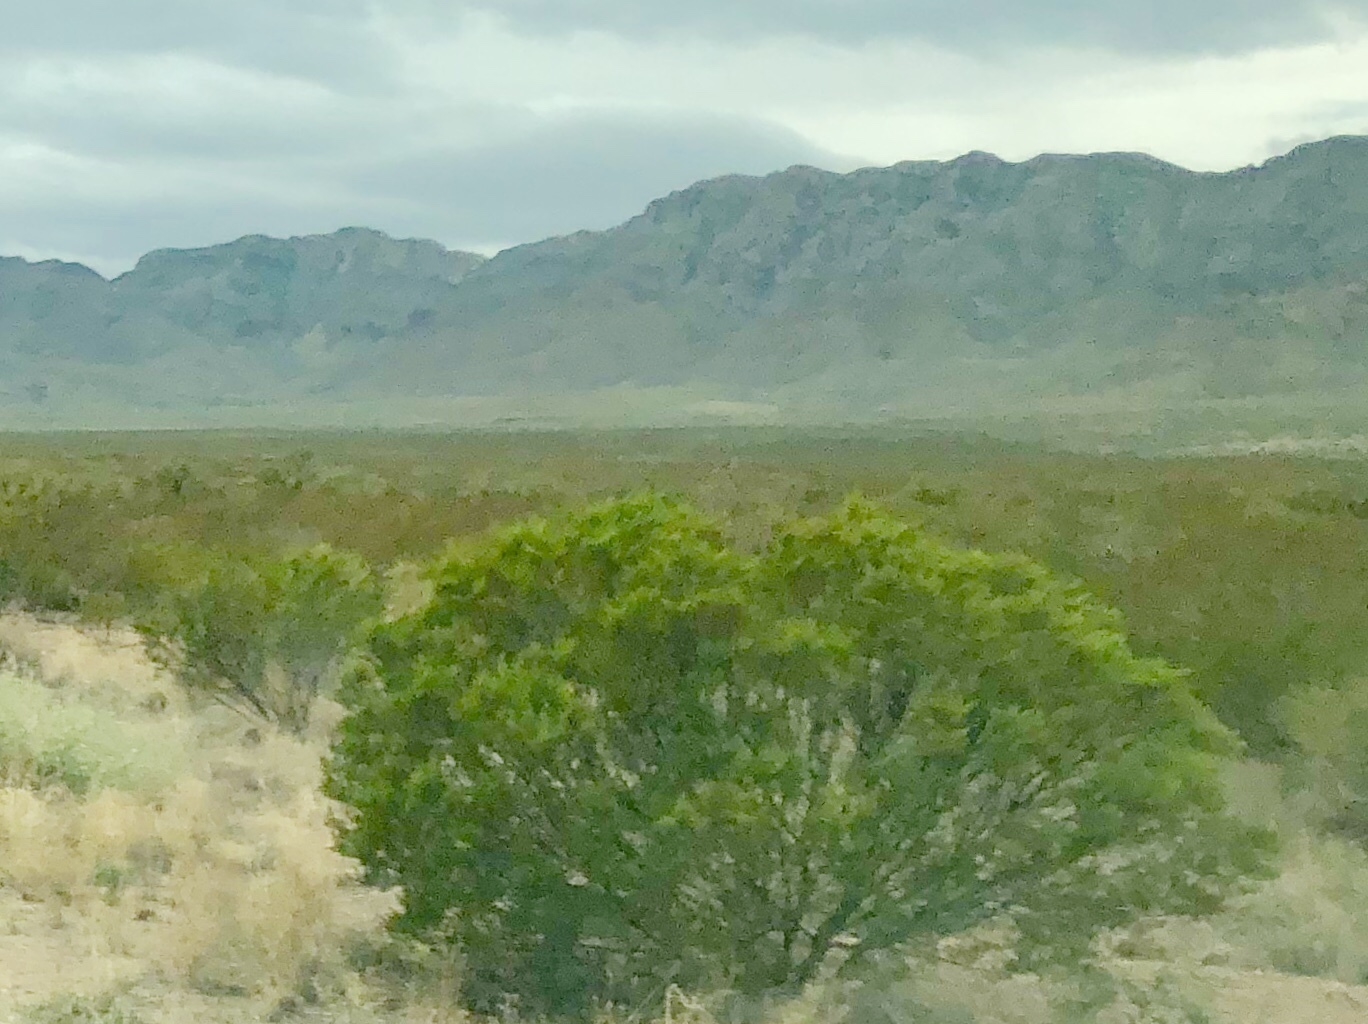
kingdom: Plantae
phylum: Tracheophyta
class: Magnoliopsida
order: Zygophyllales
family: Zygophyllaceae
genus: Larrea
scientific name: Larrea tridentata
